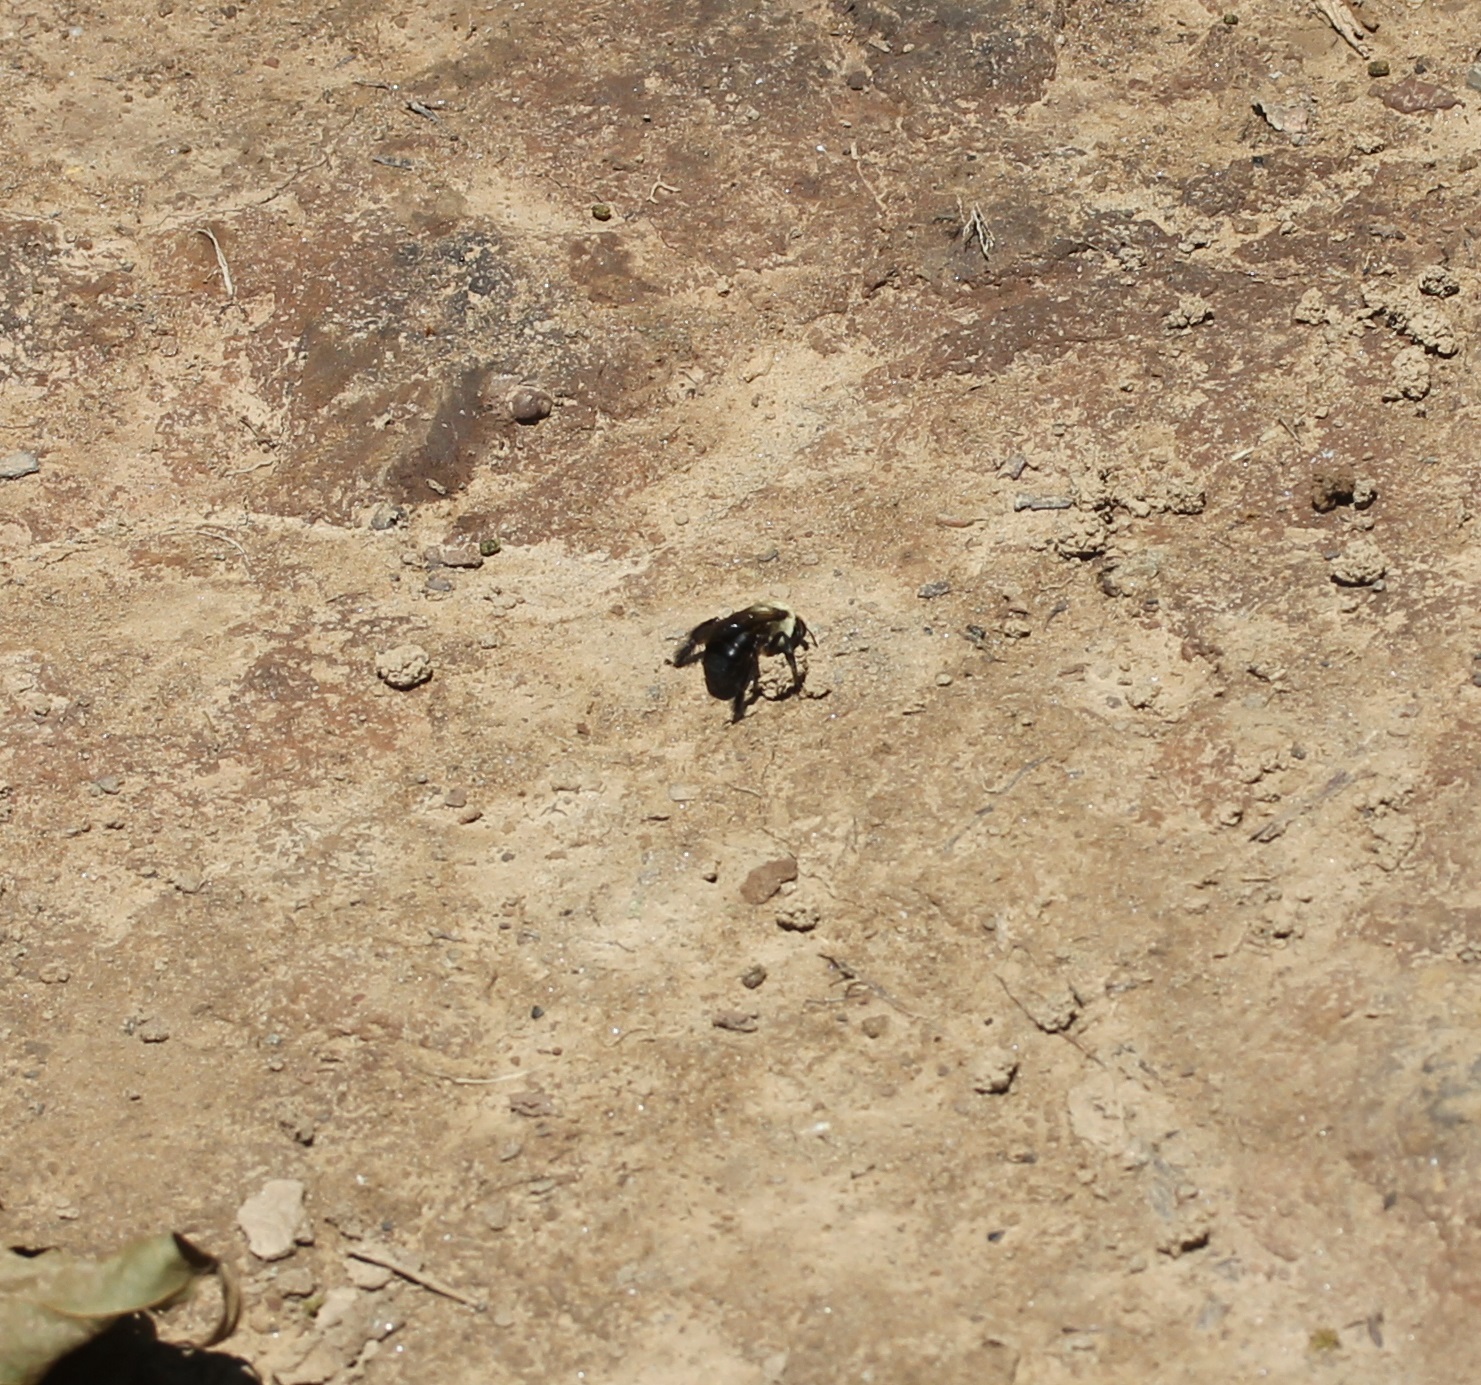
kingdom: Animalia
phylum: Arthropoda
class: Insecta
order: Hymenoptera
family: Apidae
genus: Ptilothrix
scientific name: Ptilothrix bombiformis
